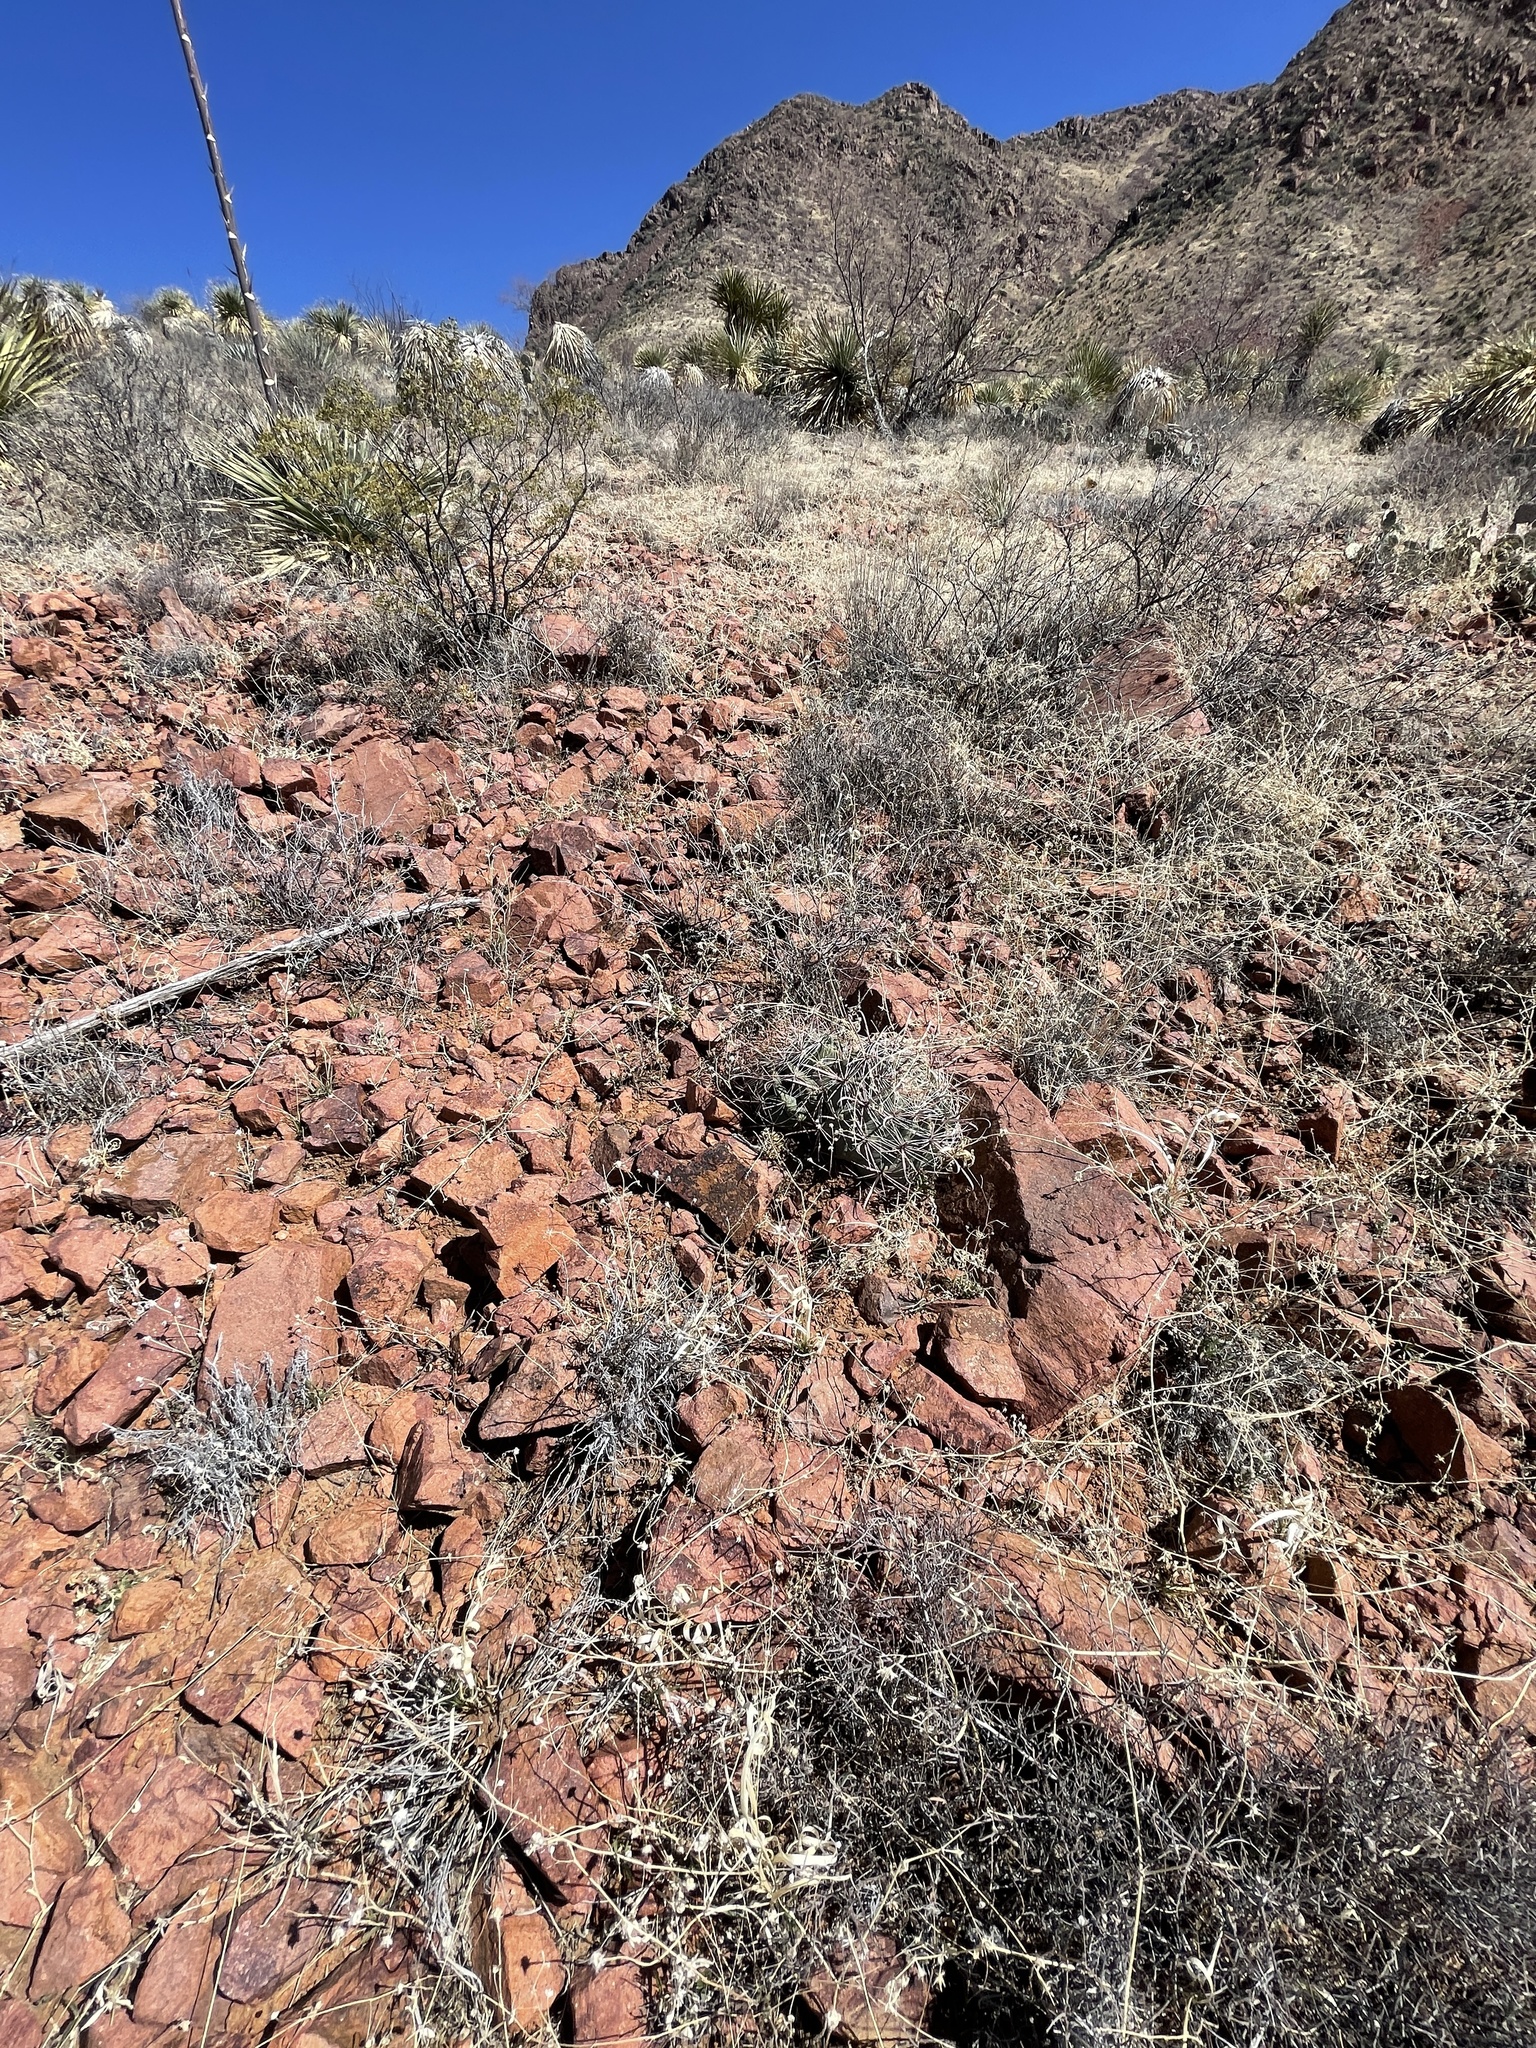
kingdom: Plantae
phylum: Tracheophyta
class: Magnoliopsida
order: Caryophyllales
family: Cactaceae
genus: Ferocactus
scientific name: Ferocactus wislizeni
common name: Candy barrel cactus
